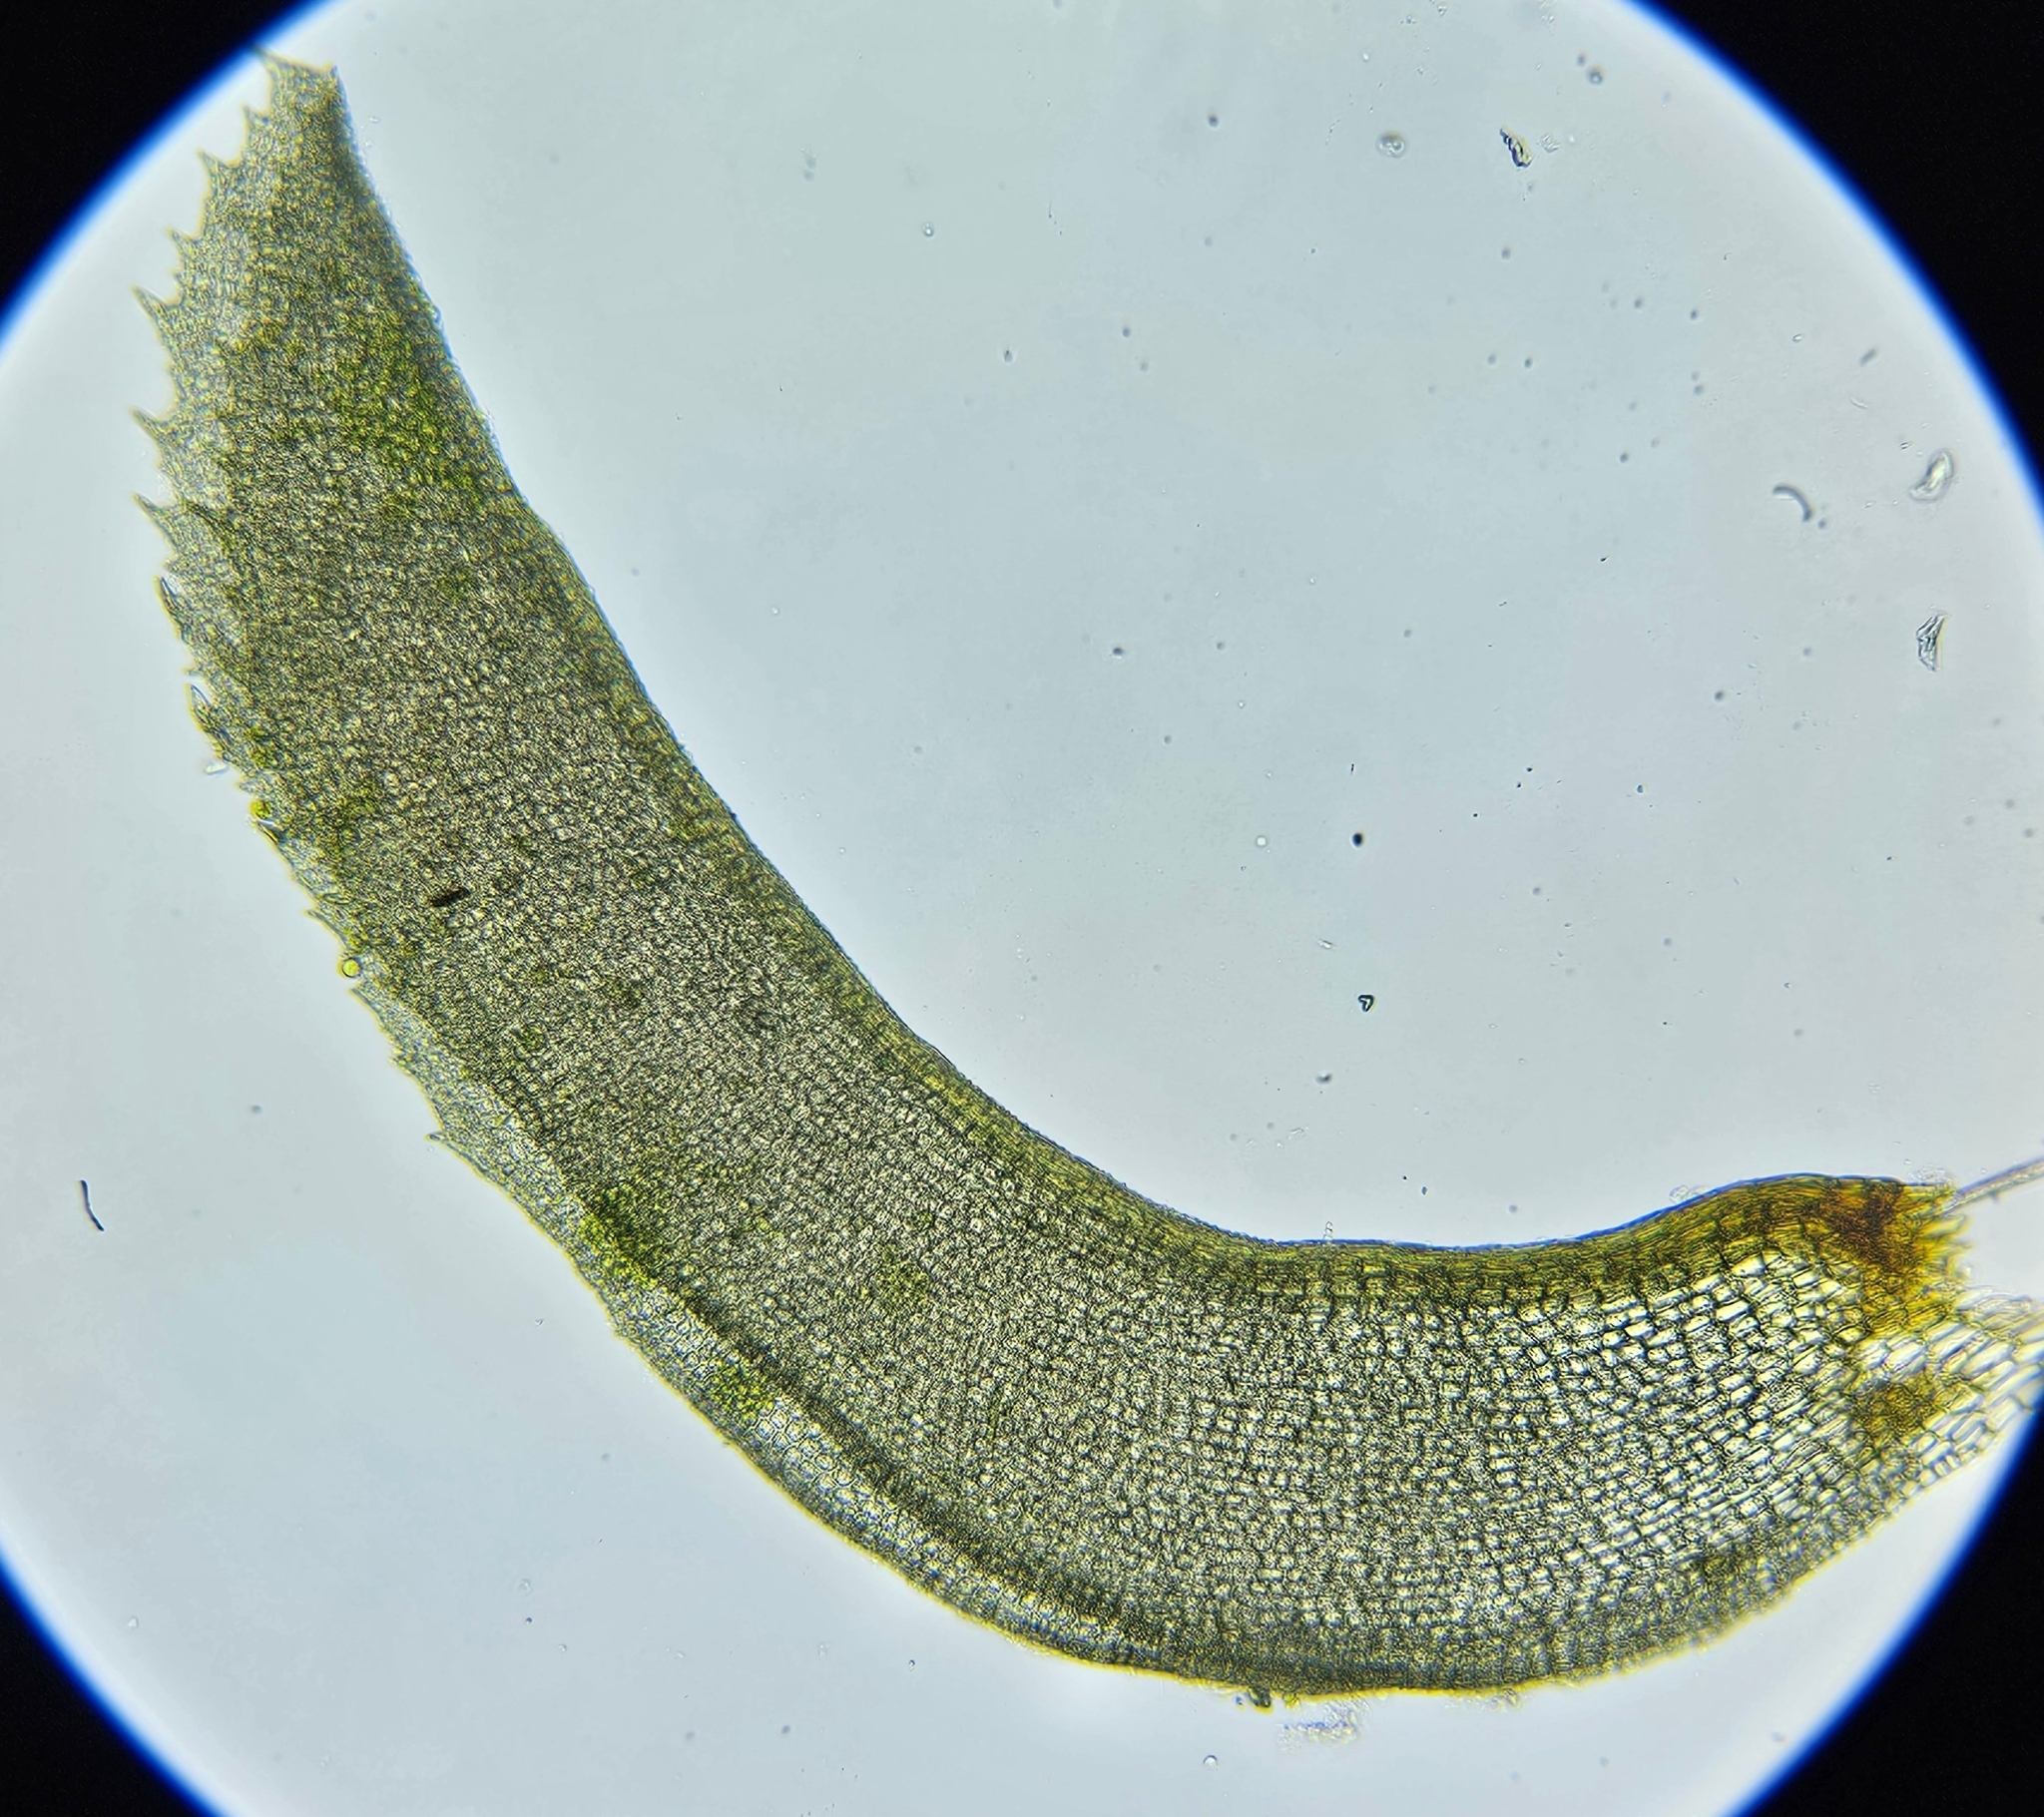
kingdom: Plantae
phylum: Bryophyta
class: Bryopsida
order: Pottiales
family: Pottiaceae
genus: Leptodontium
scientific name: Leptodontium flexifolium
